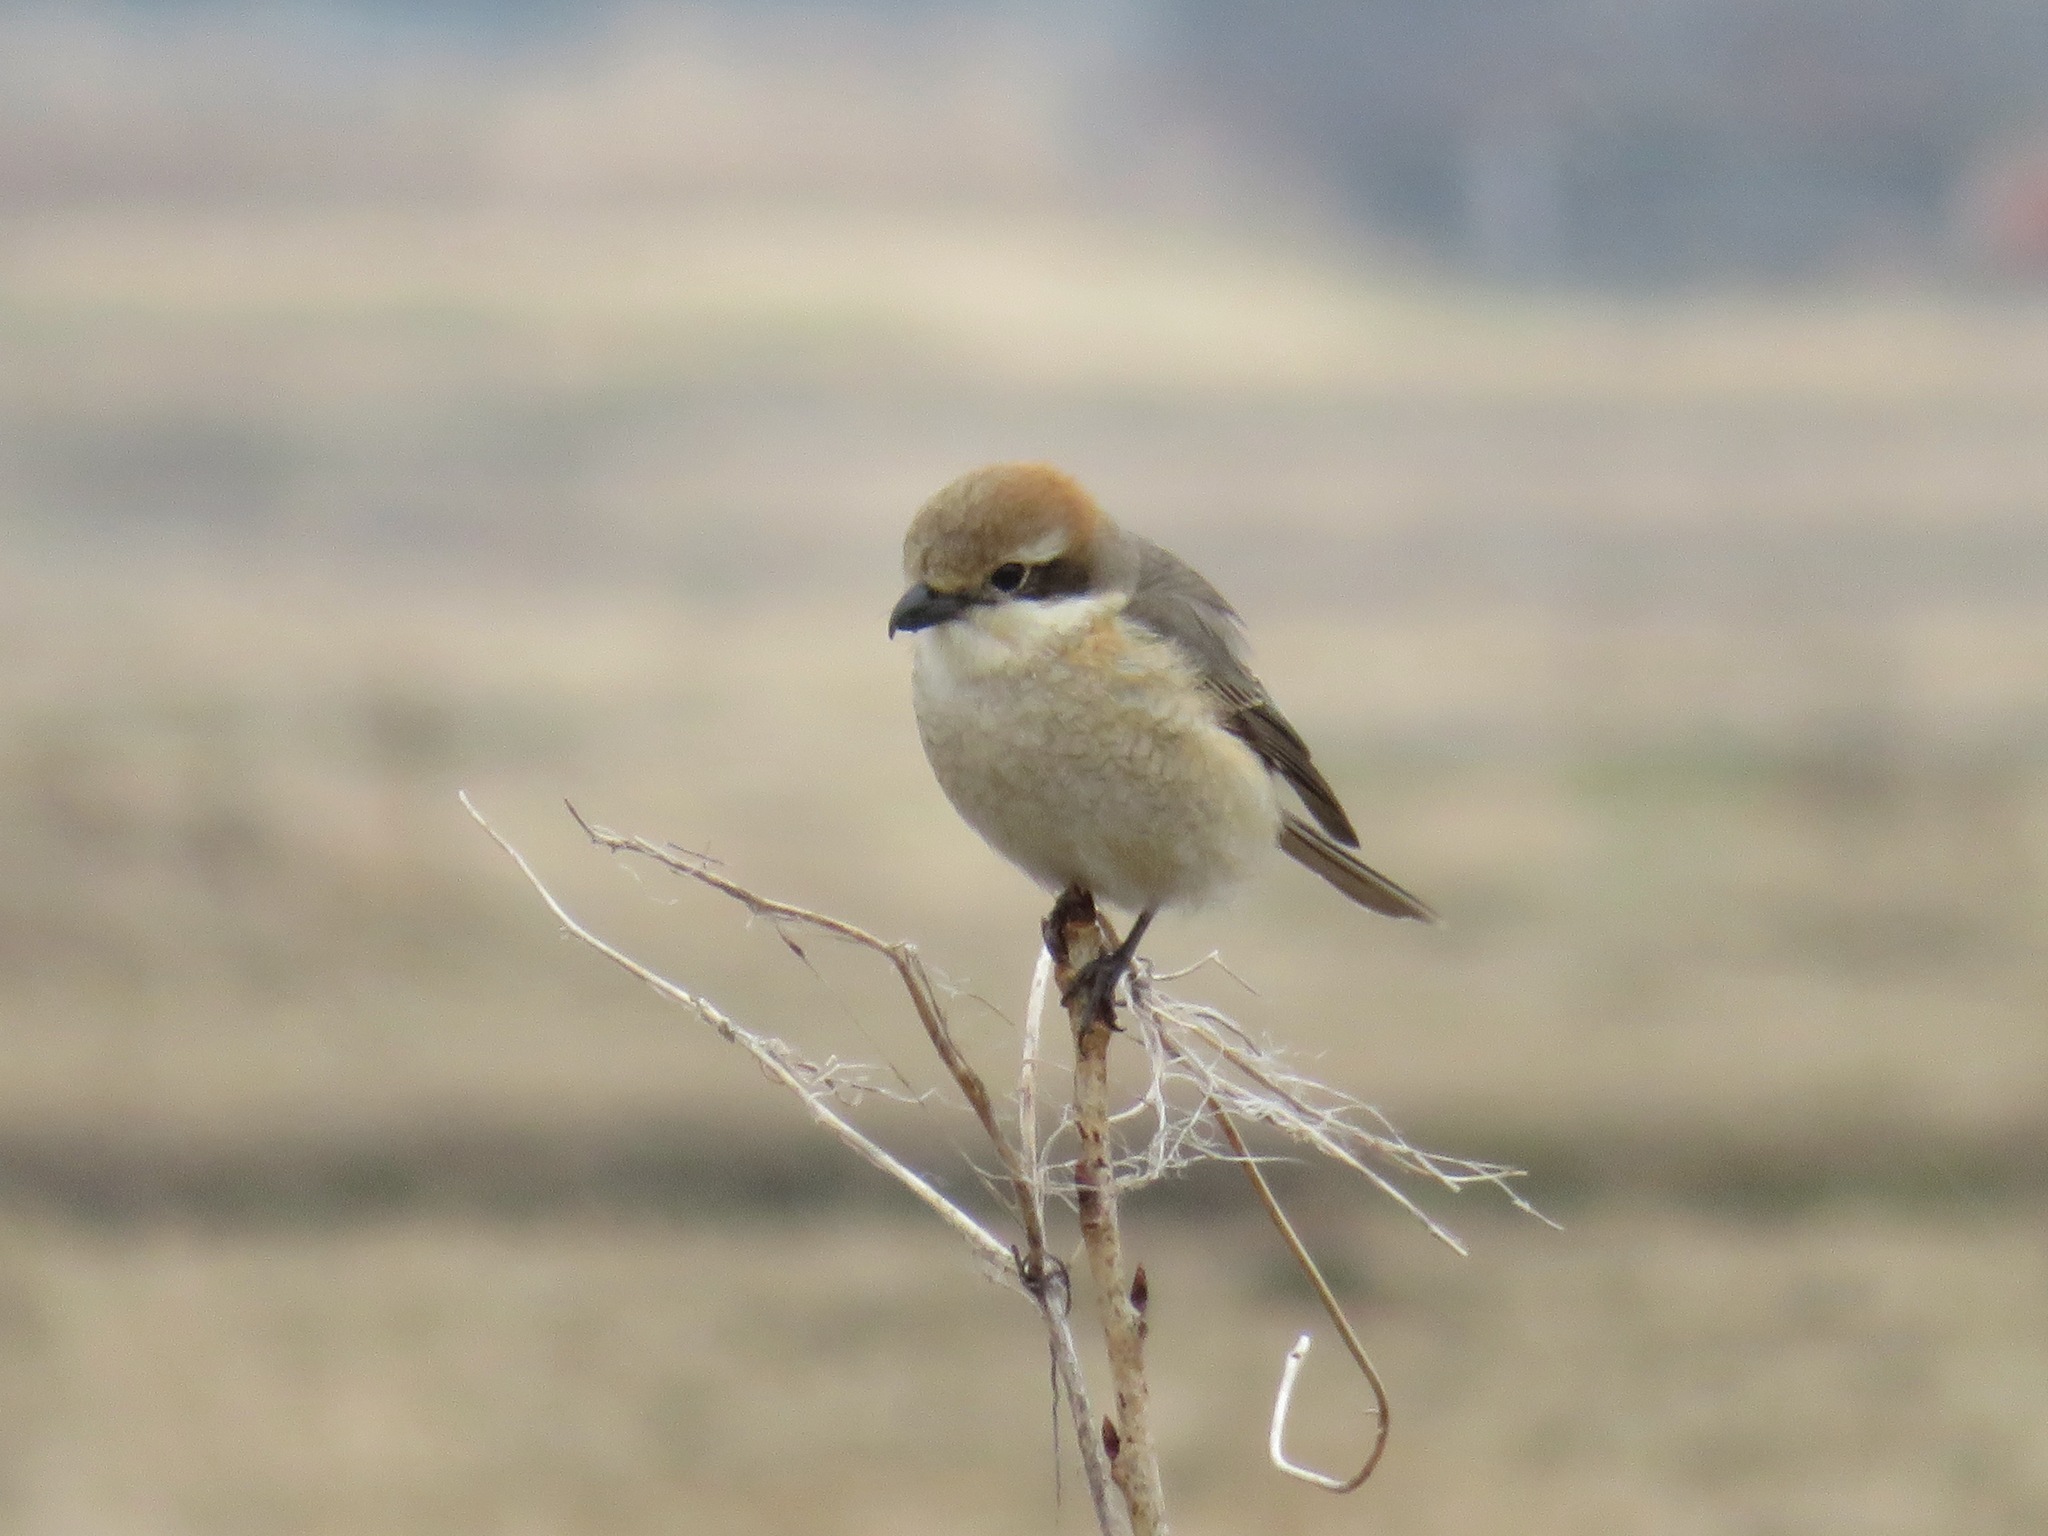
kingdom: Animalia
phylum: Chordata
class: Aves
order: Passeriformes
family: Laniidae
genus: Lanius
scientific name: Lanius bucephalus
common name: Bull-headed shrike
